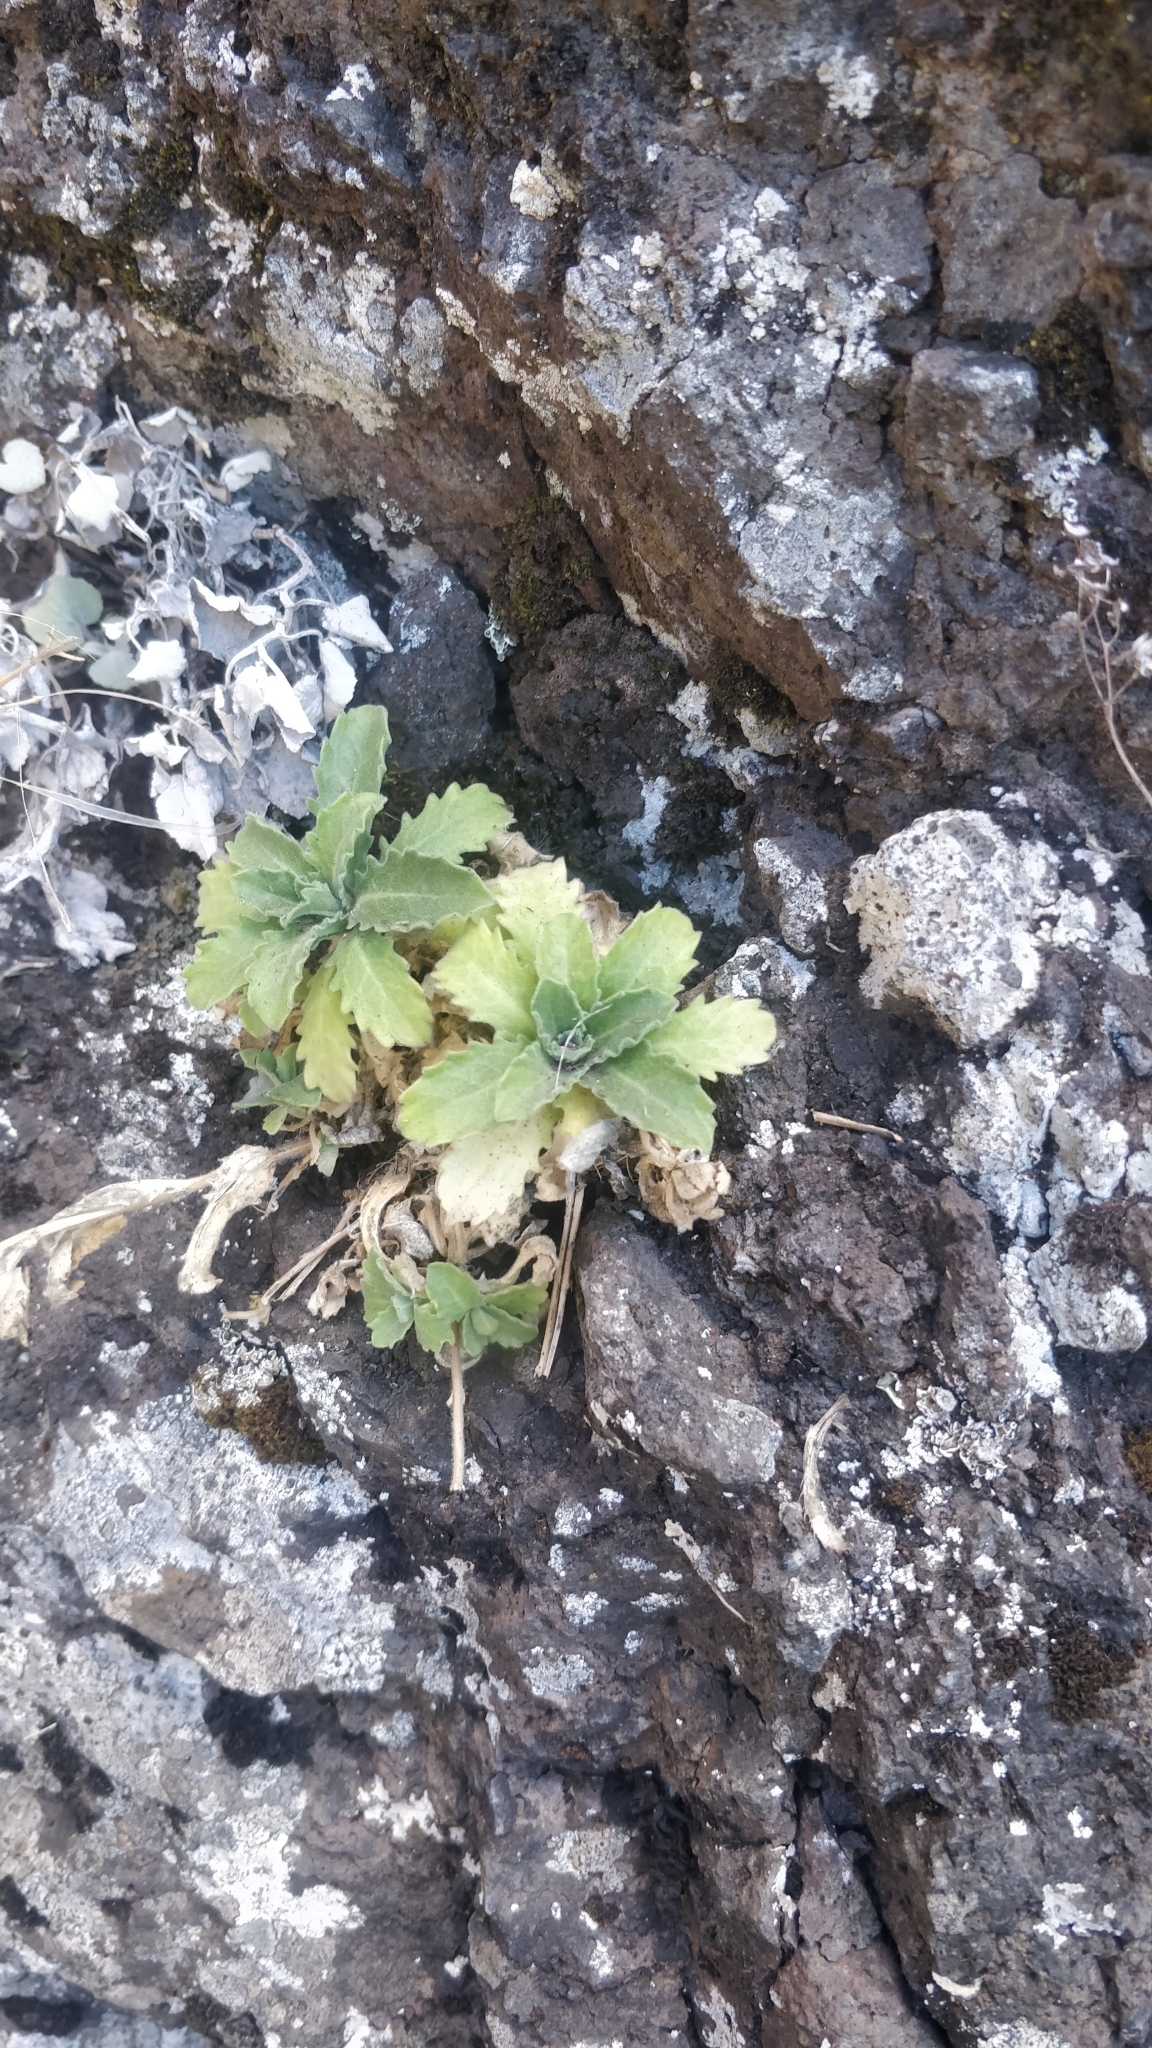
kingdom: Plantae
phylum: Tracheophyta
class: Magnoliopsida
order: Brassicales
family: Brassicaceae
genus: Arabis
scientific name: Arabis caucasica
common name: Gray rockcress
